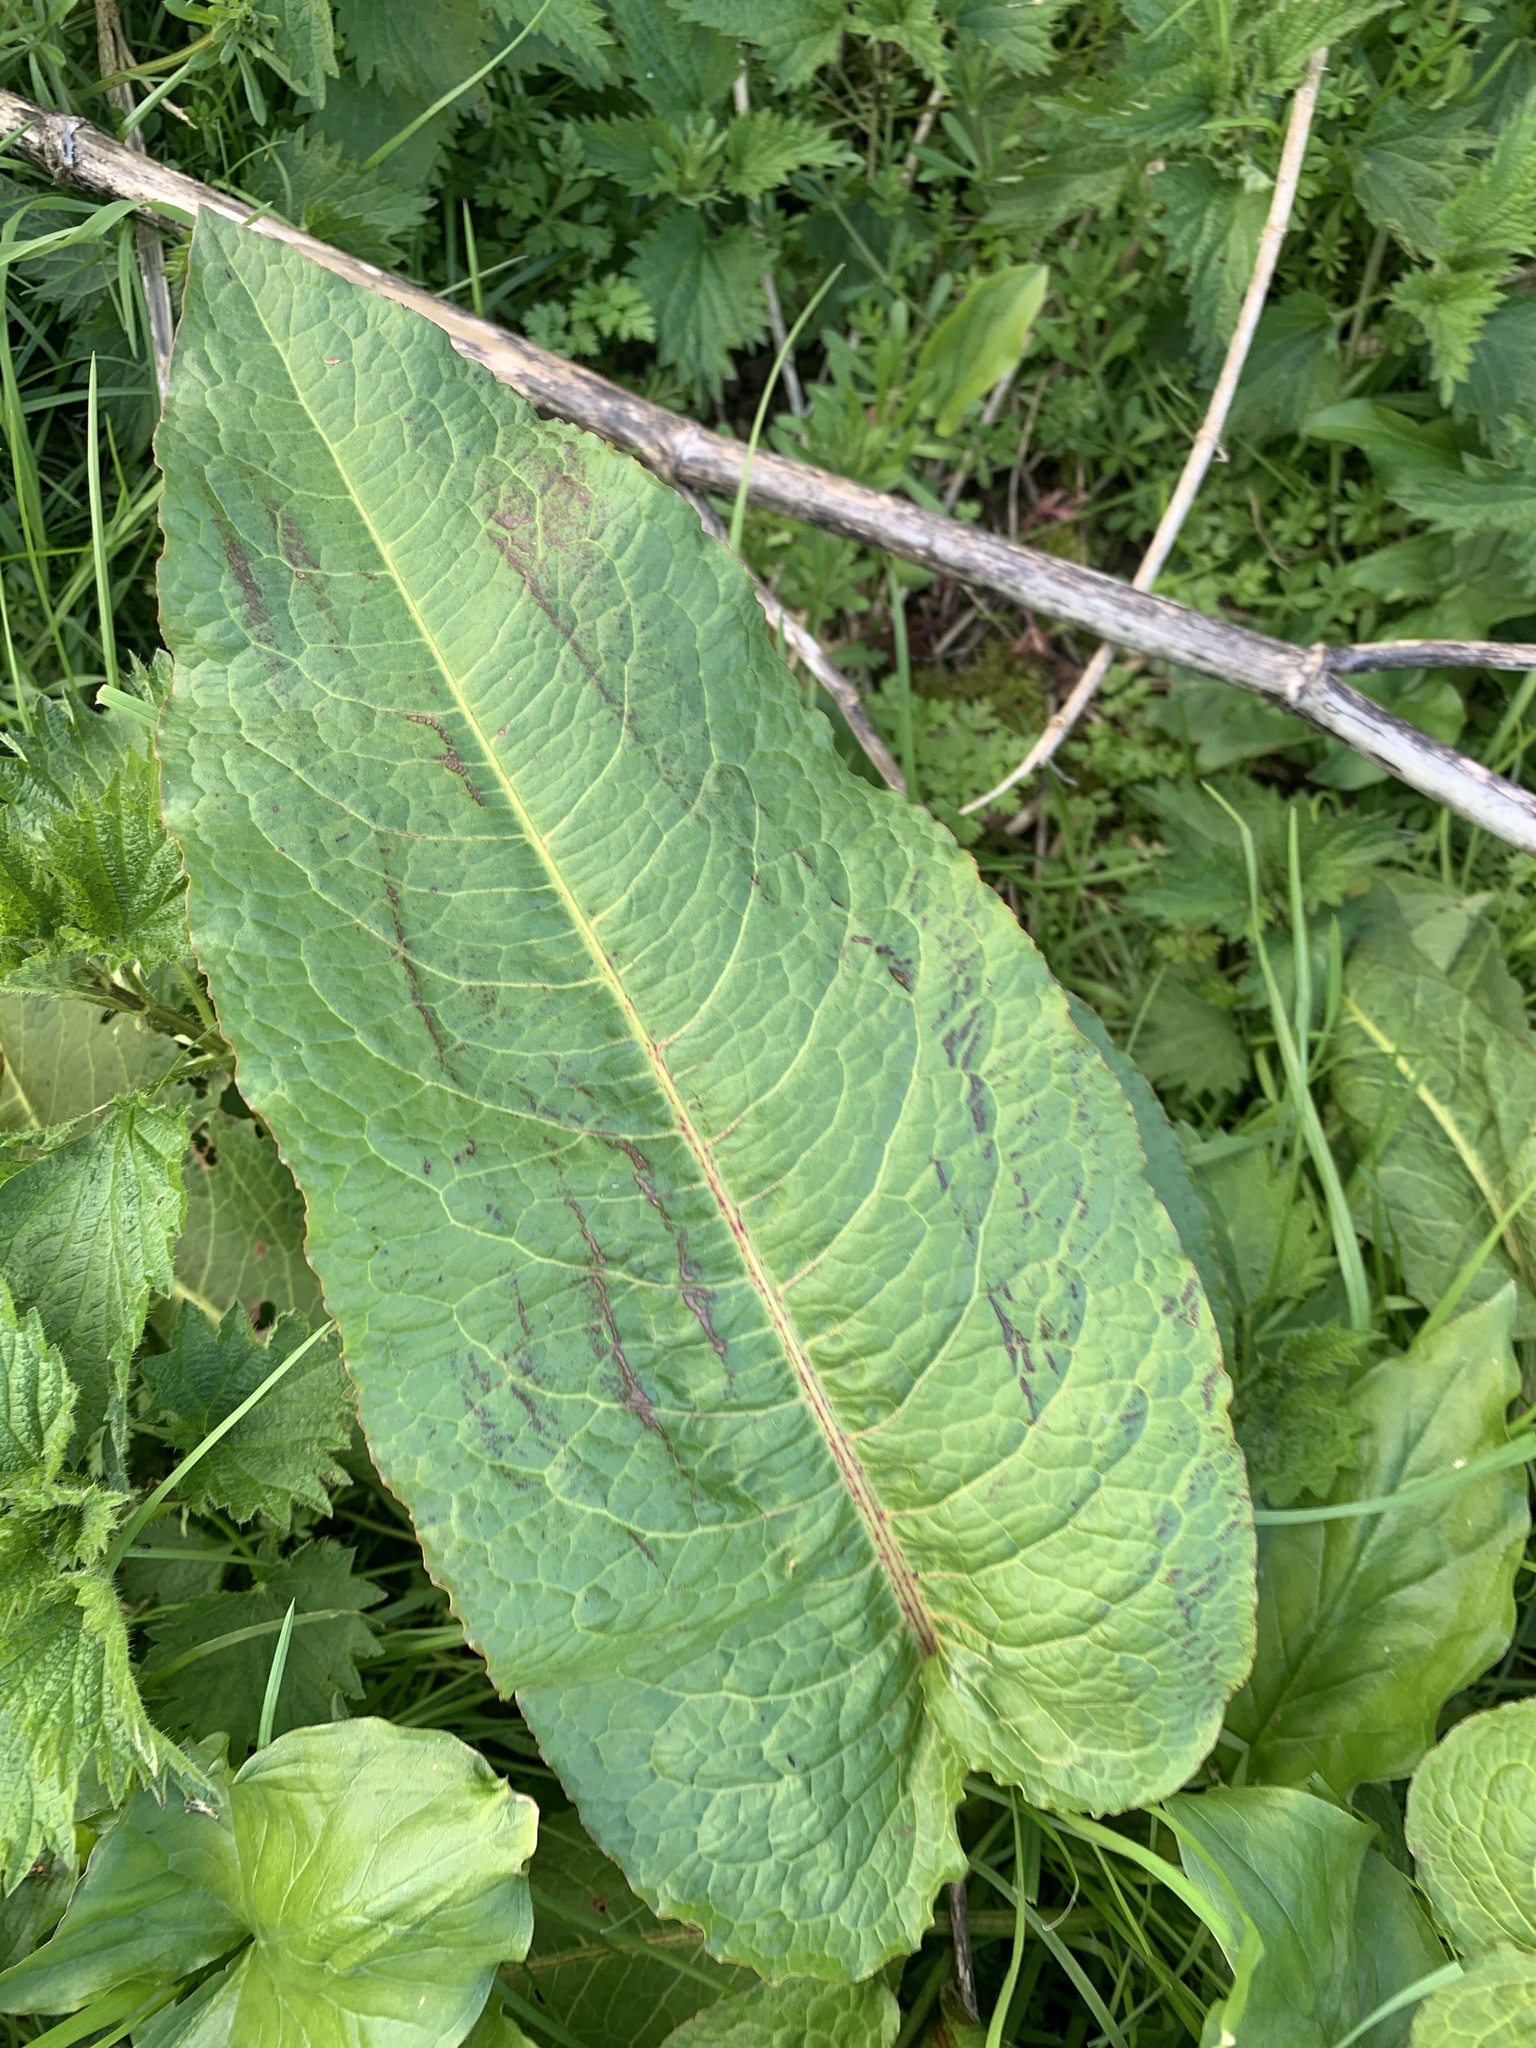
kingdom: Plantae
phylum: Tracheophyta
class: Magnoliopsida
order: Caryophyllales
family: Polygonaceae
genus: Rumex
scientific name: Rumex obtusifolius
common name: Bitter dock
